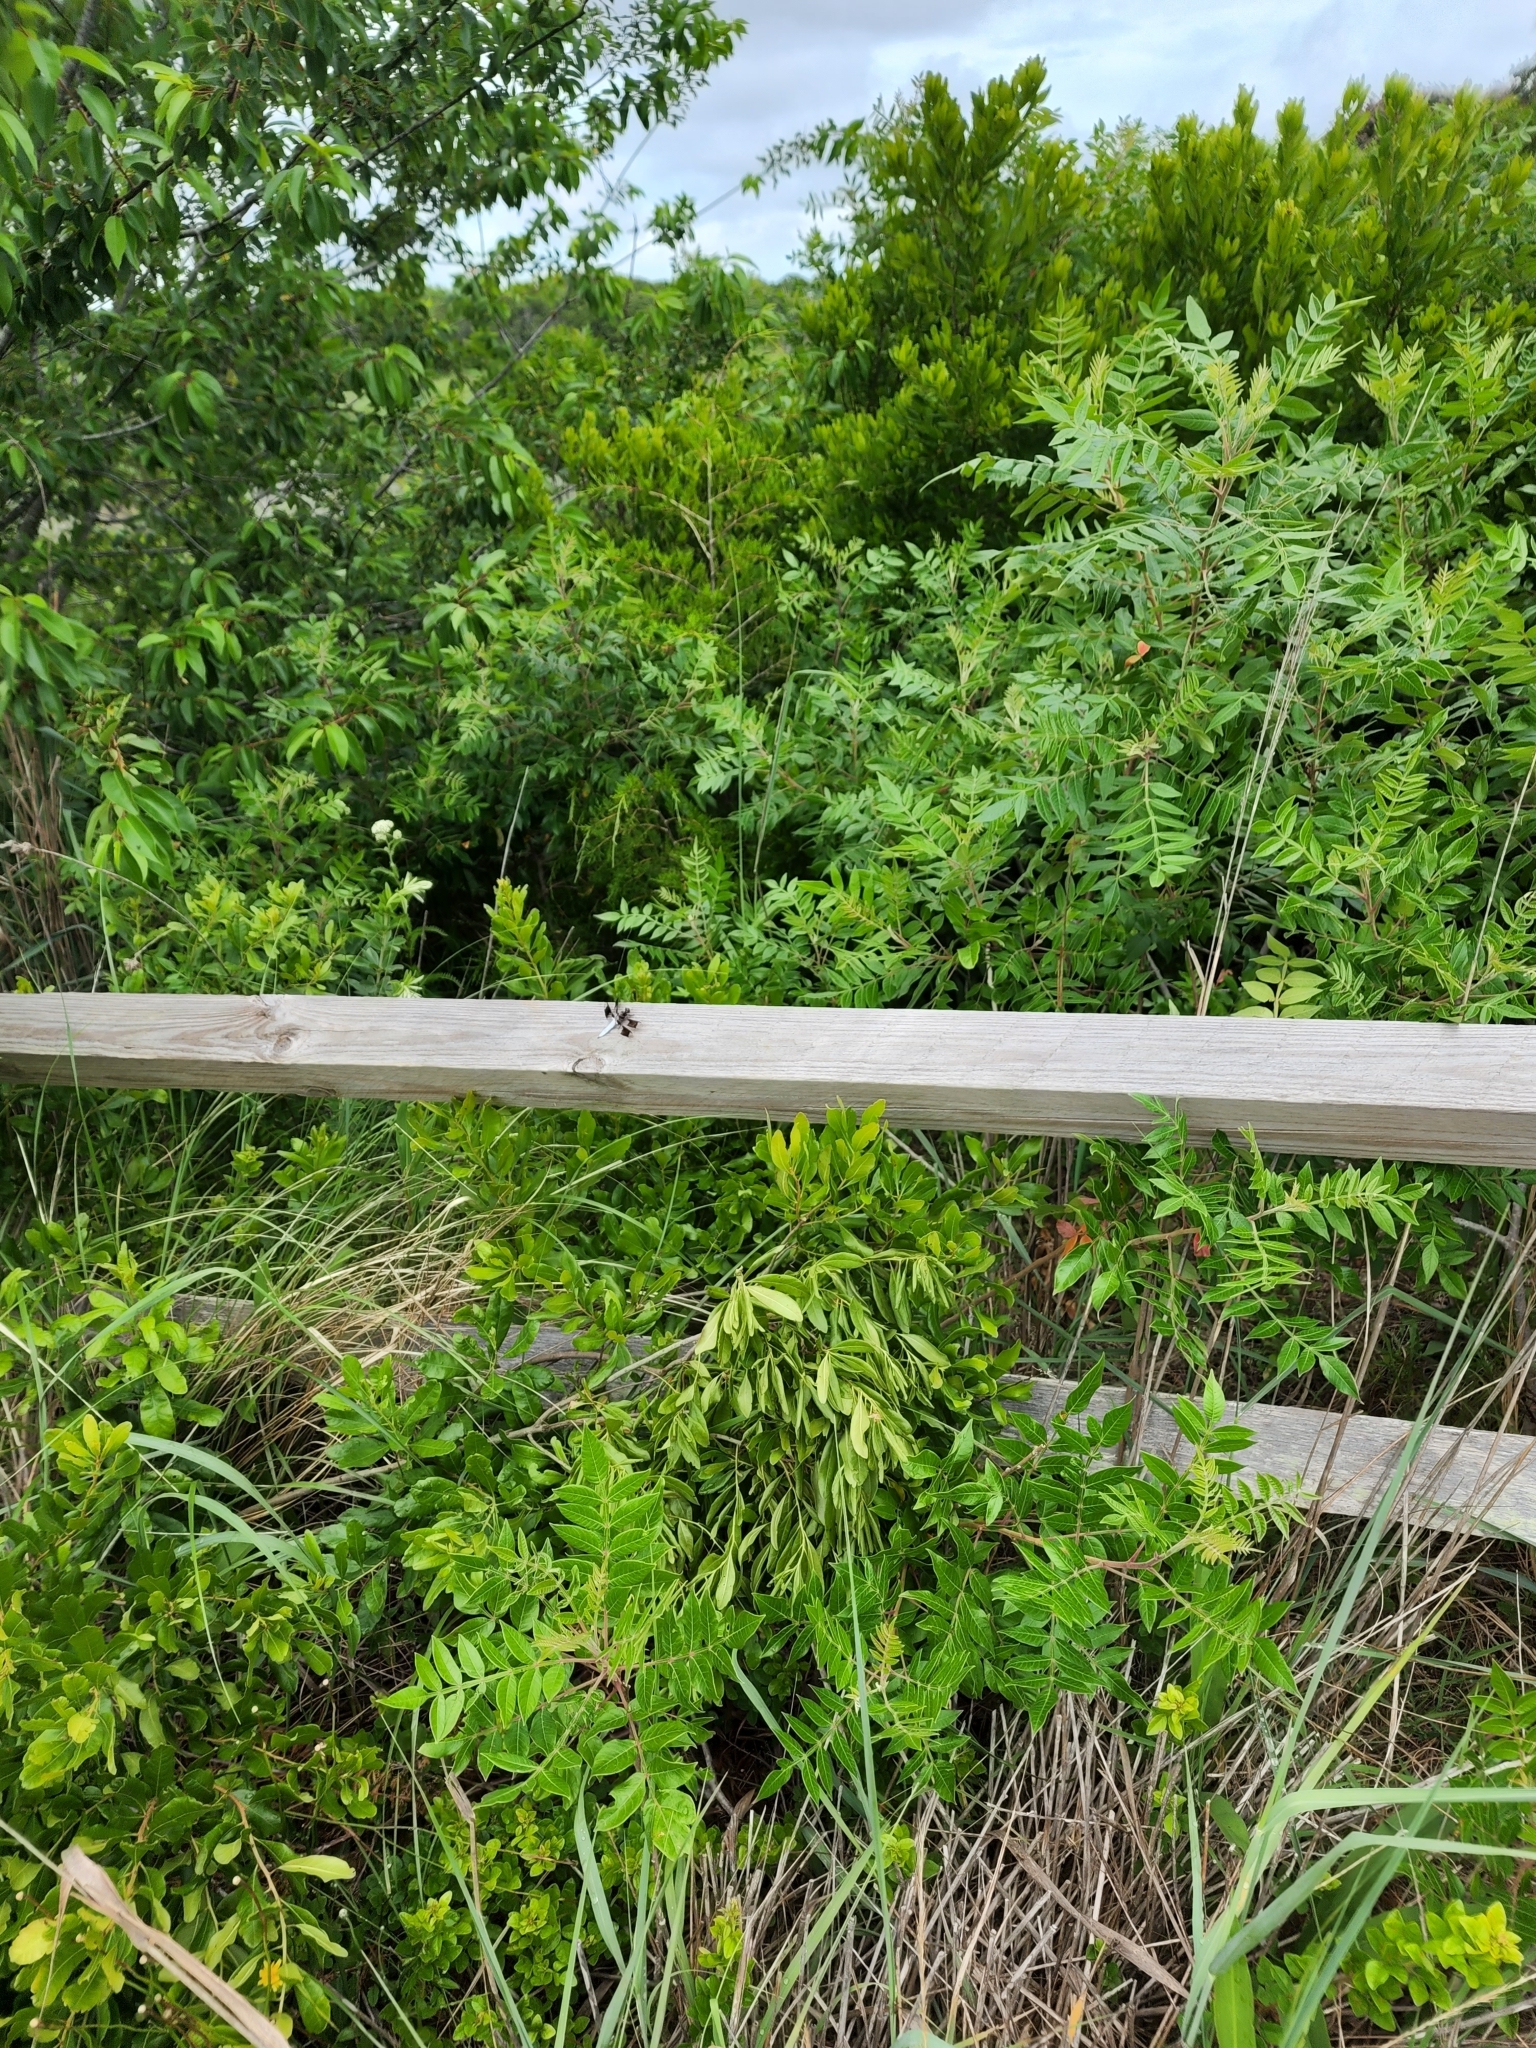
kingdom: Animalia
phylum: Arthropoda
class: Insecta
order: Odonata
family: Libellulidae
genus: Plathemis
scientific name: Plathemis lydia
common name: Common whitetail
